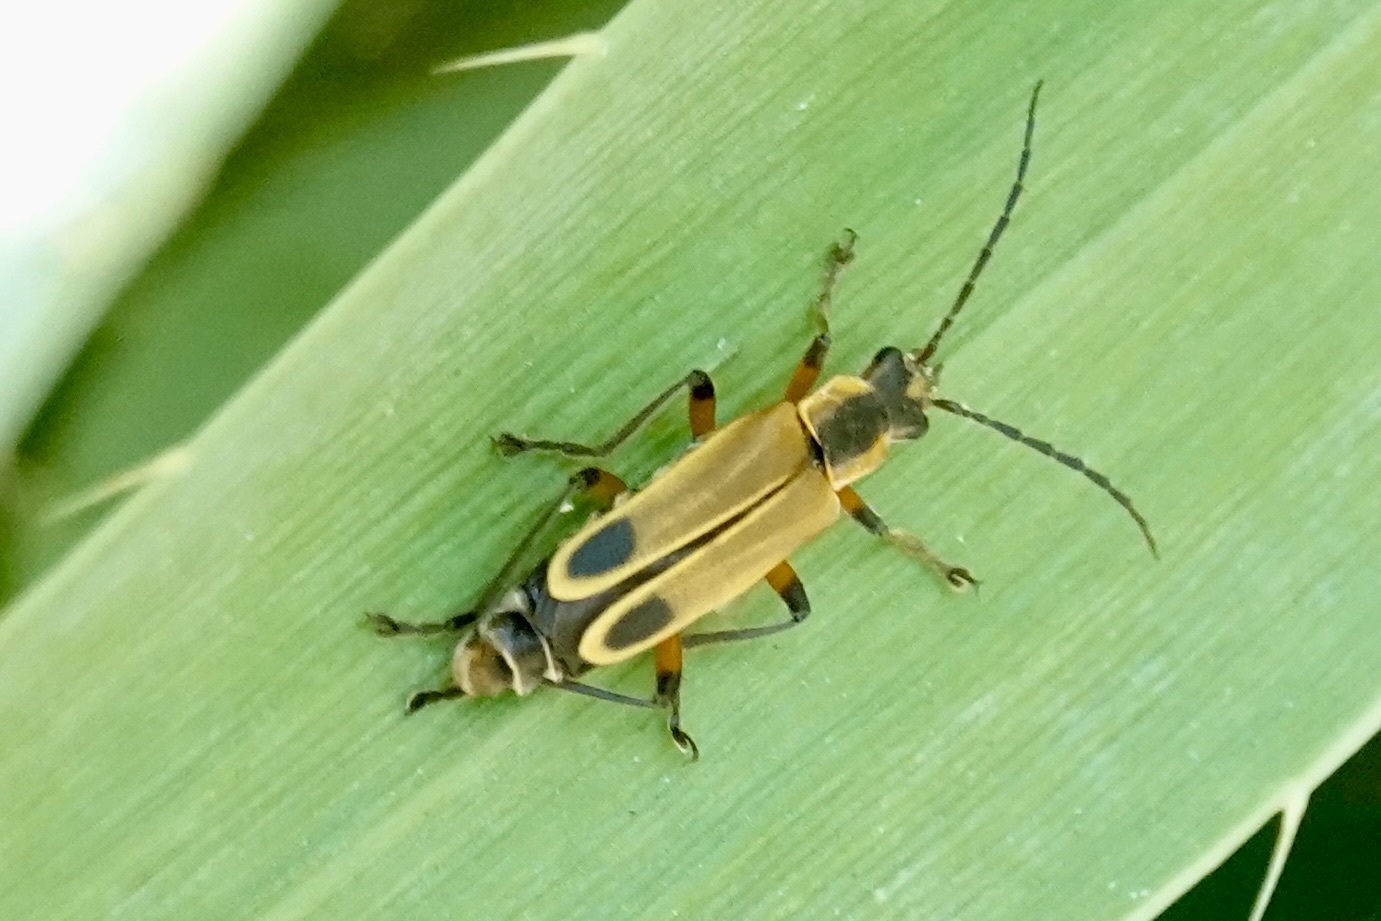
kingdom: Animalia
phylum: Arthropoda
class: Insecta
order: Coleoptera
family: Cantharidae
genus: Chauliognathus
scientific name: Chauliognathus marginatus
